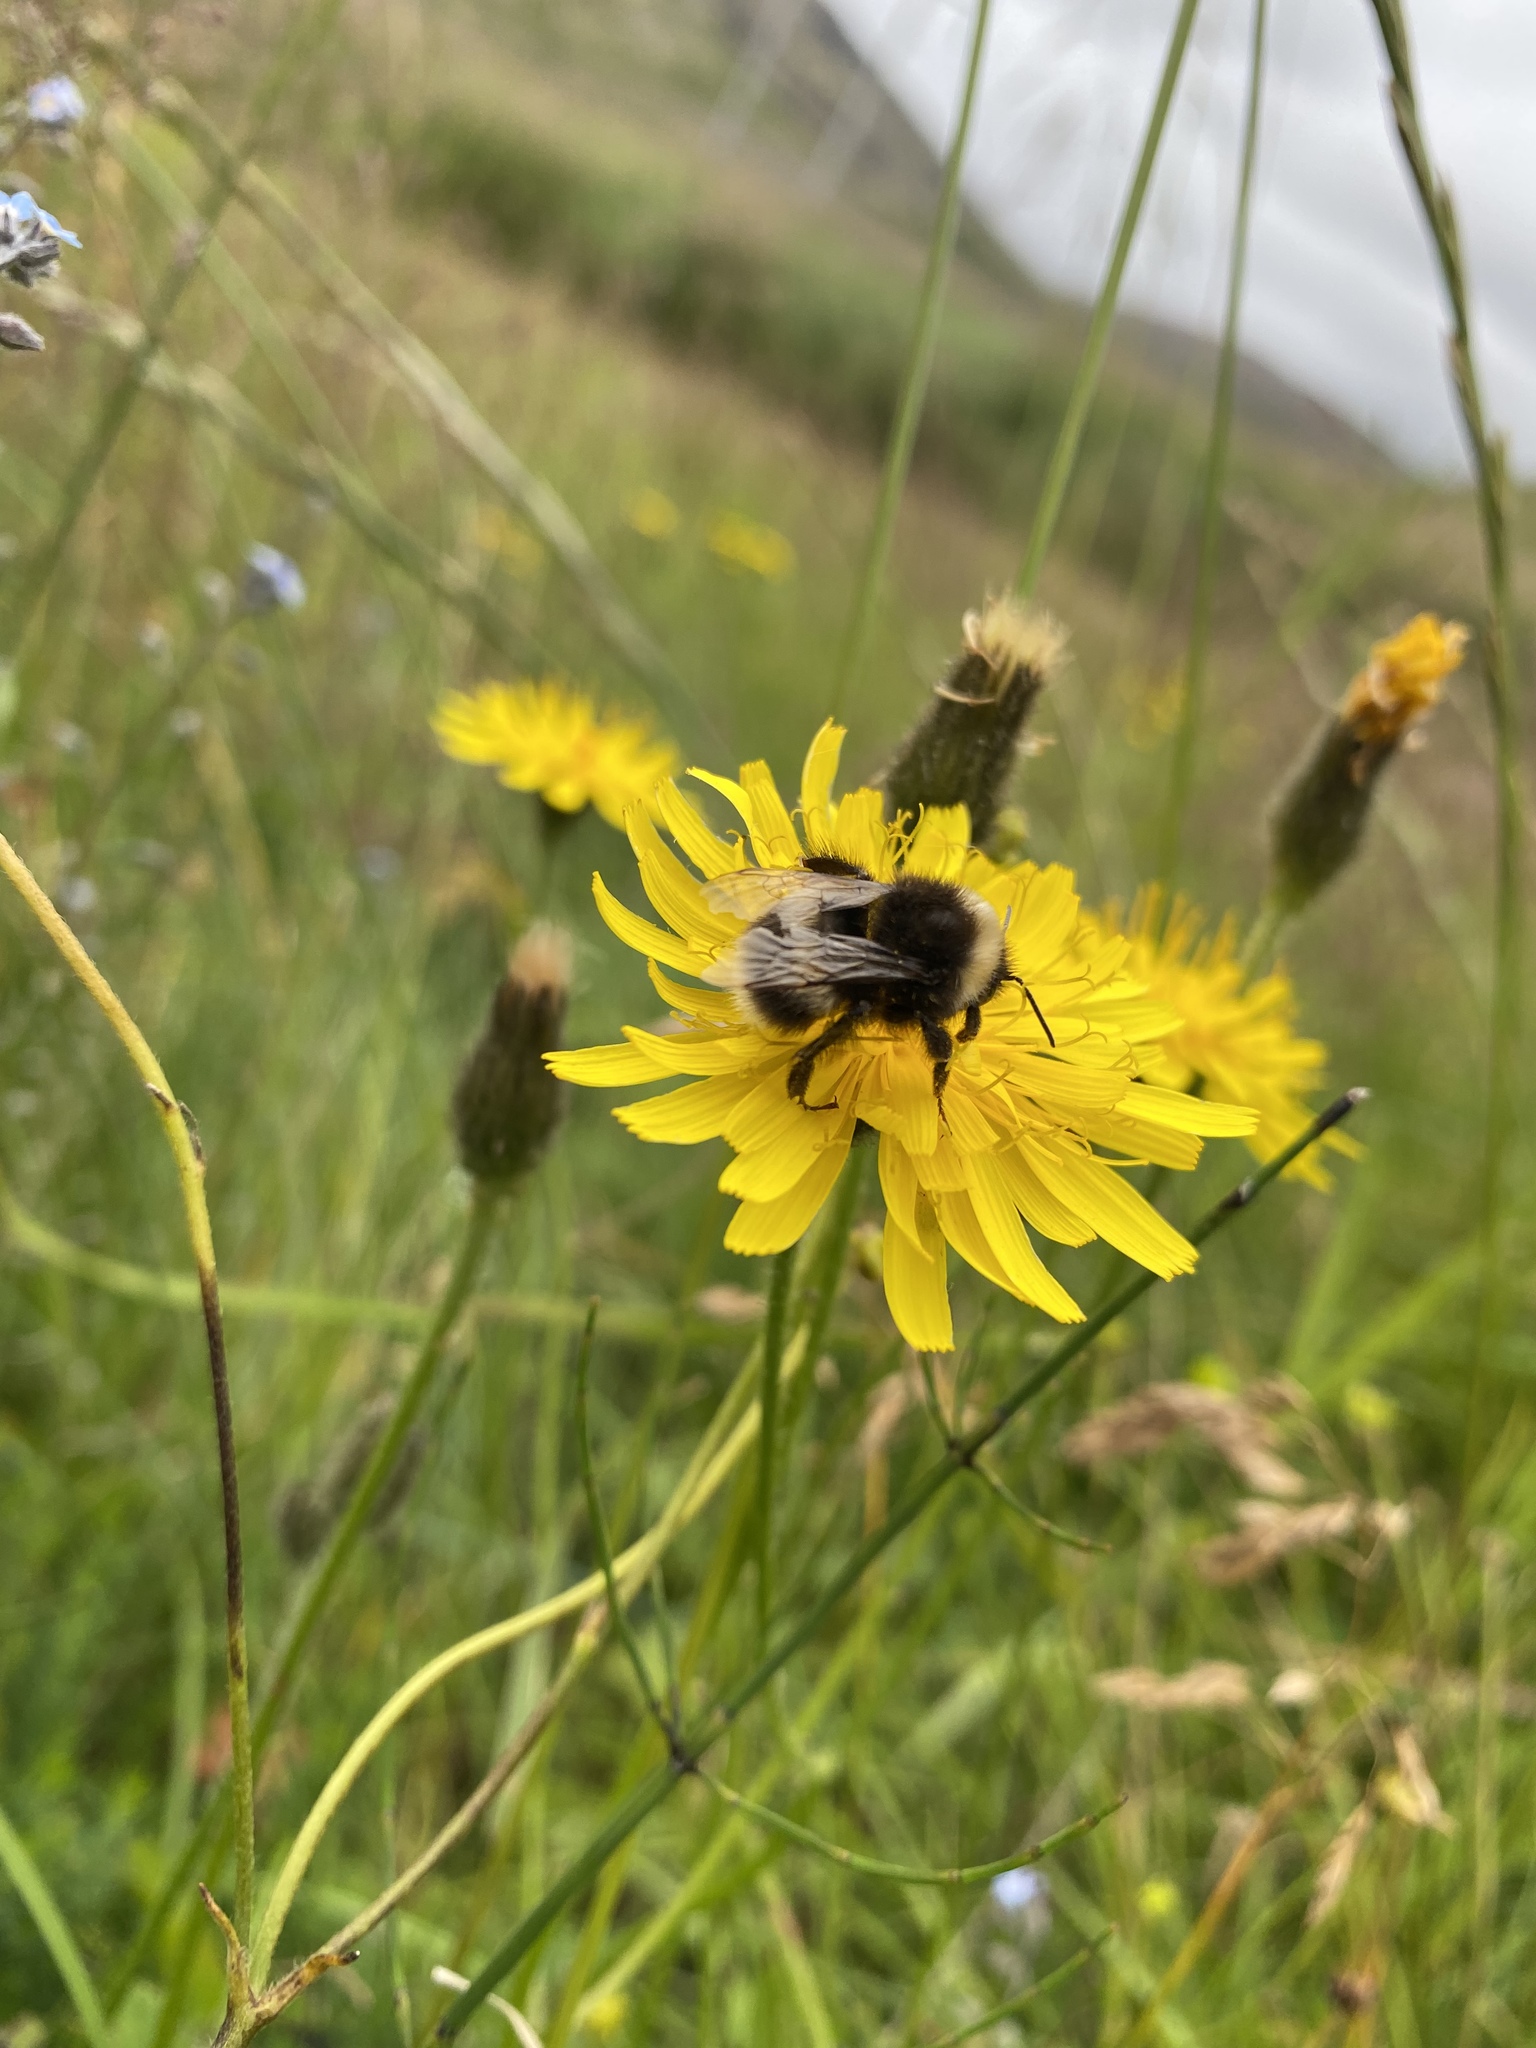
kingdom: Animalia
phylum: Arthropoda
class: Insecta
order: Hymenoptera
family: Apidae
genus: Bombus
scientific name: Bombus lucorum
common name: White-tailed bumblebee
